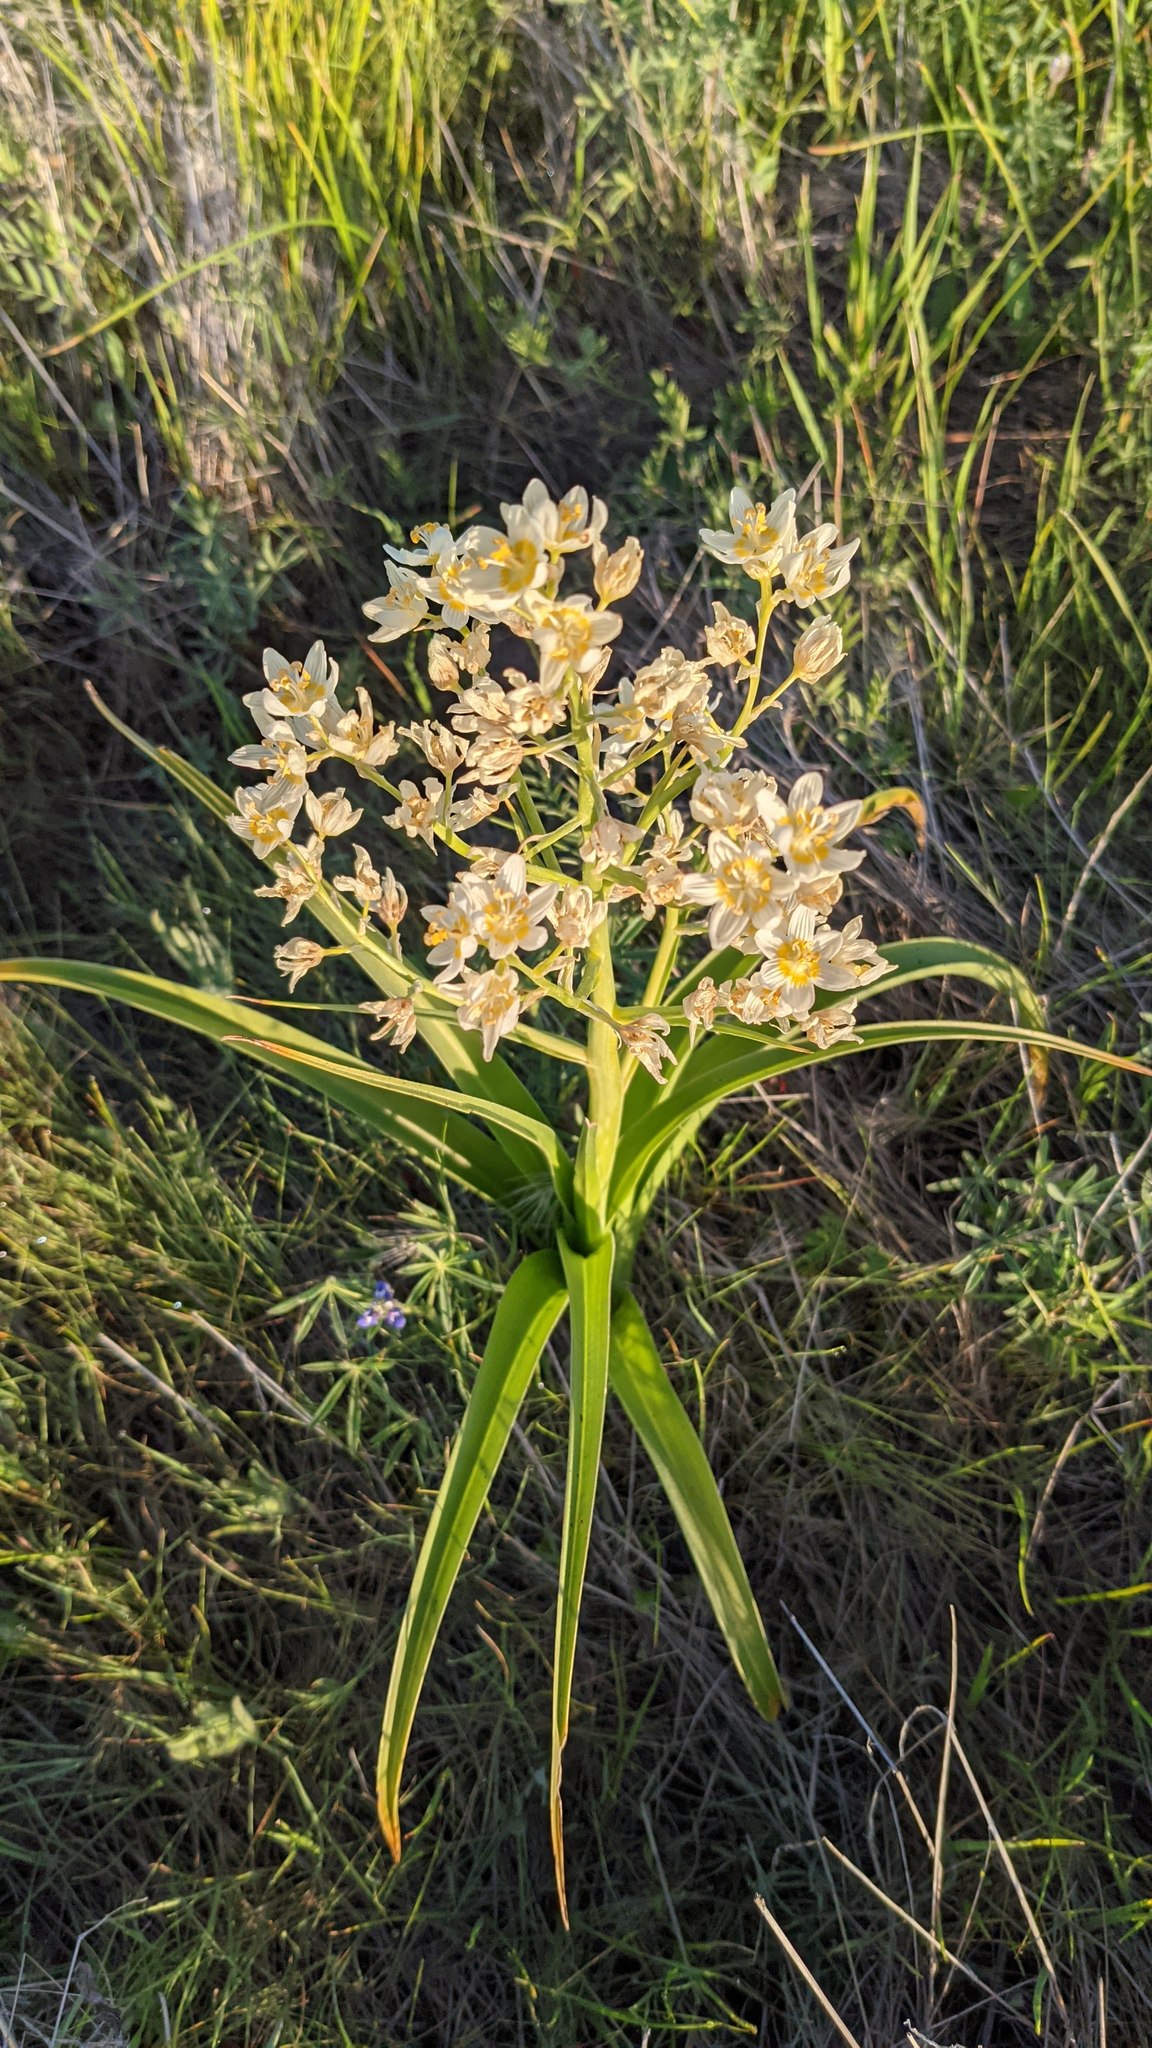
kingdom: Plantae
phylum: Tracheophyta
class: Liliopsida
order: Liliales
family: Melanthiaceae
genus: Toxicoscordion
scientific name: Toxicoscordion fremontii
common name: Fremont's death camas
